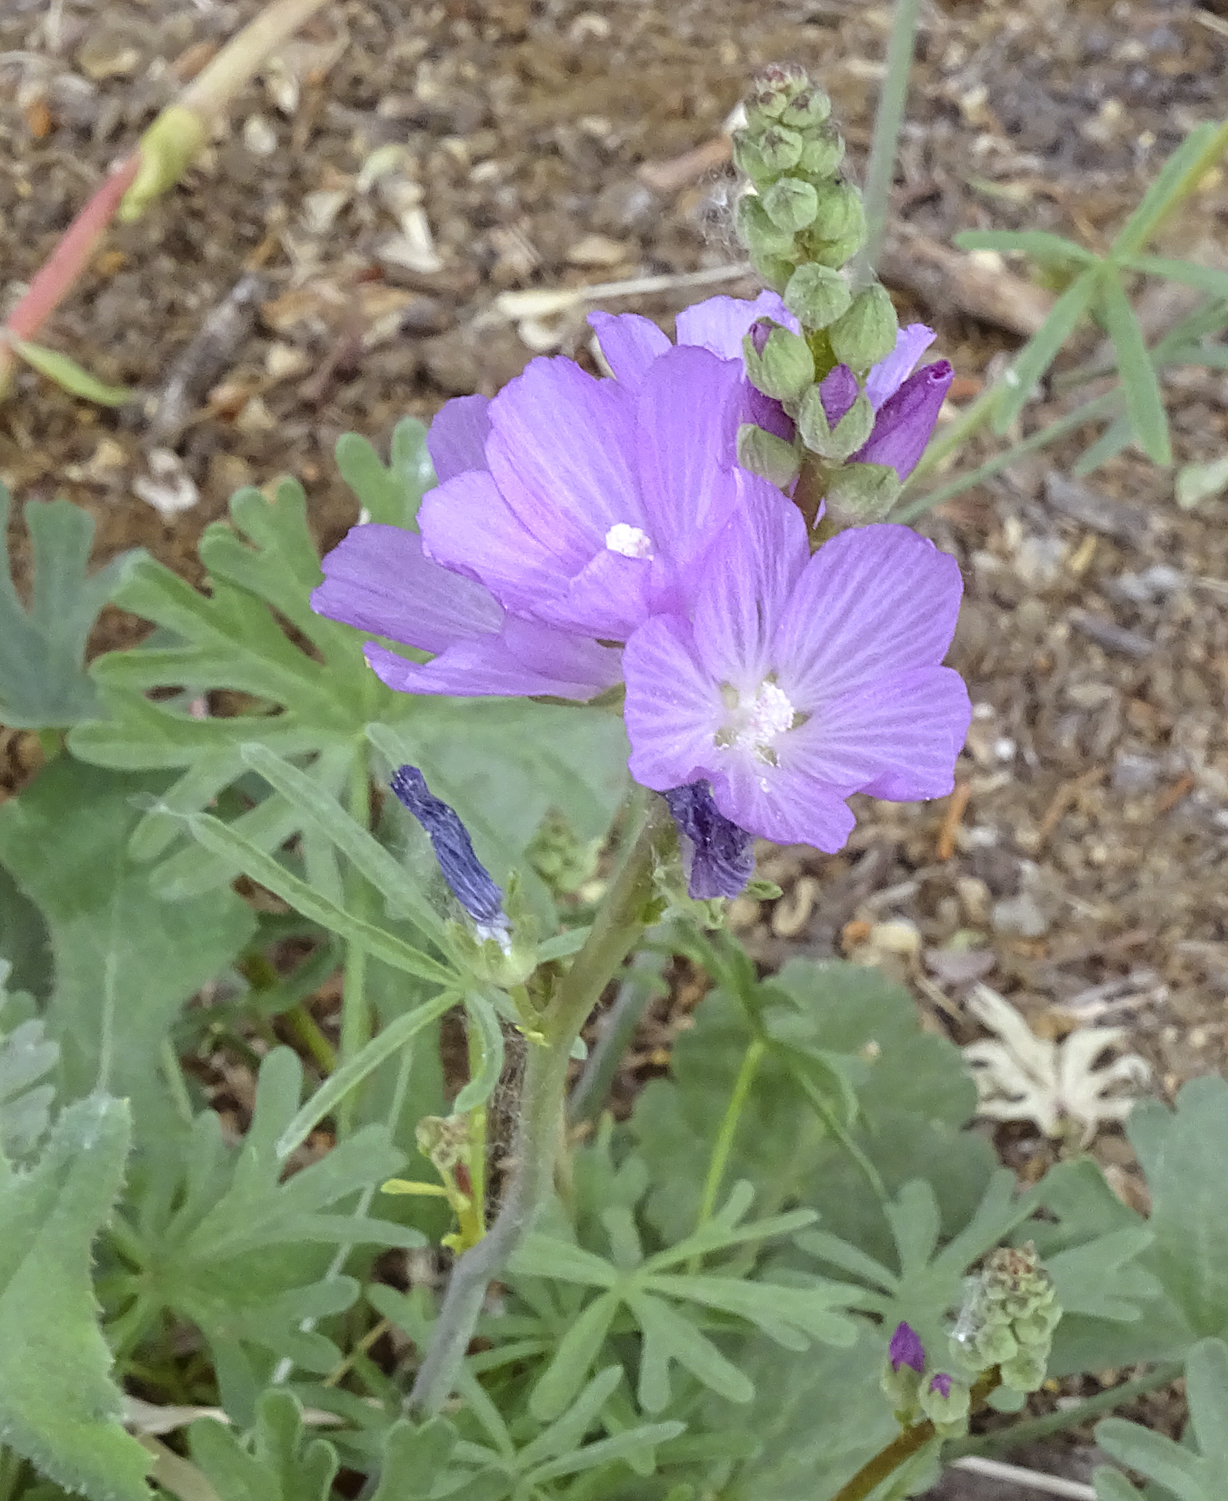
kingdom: Plantae
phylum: Tracheophyta
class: Magnoliopsida
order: Malvales
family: Malvaceae
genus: Sidalcea
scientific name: Sidalcea covillei
